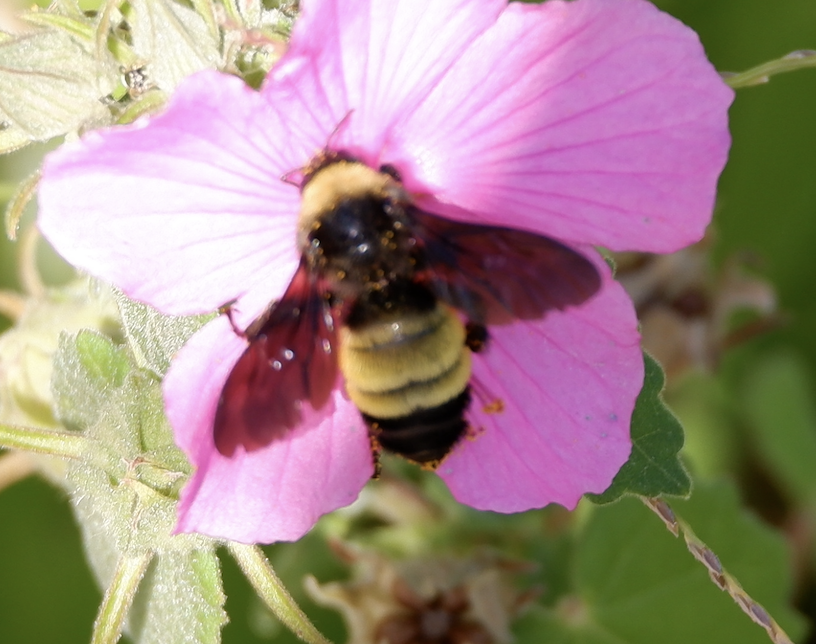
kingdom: Animalia
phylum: Arthropoda
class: Insecta
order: Hymenoptera
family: Apidae
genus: Bombus
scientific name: Bombus pensylvanicus
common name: Bumble bee
